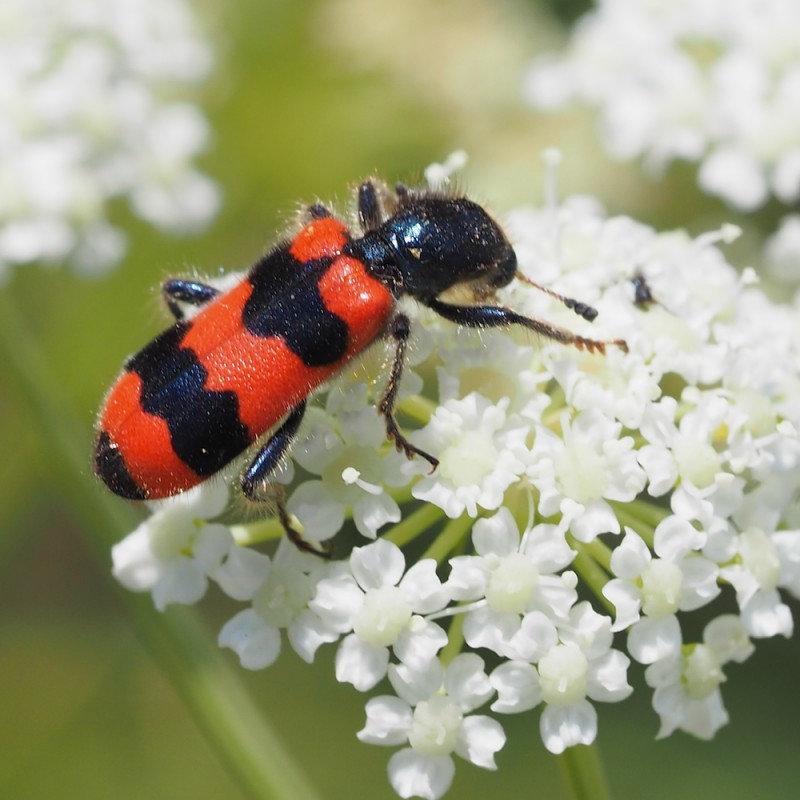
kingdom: Animalia
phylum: Arthropoda
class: Insecta
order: Coleoptera
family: Cleridae
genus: Trichodes
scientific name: Trichodes apiarius
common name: Bee-eating beetle
